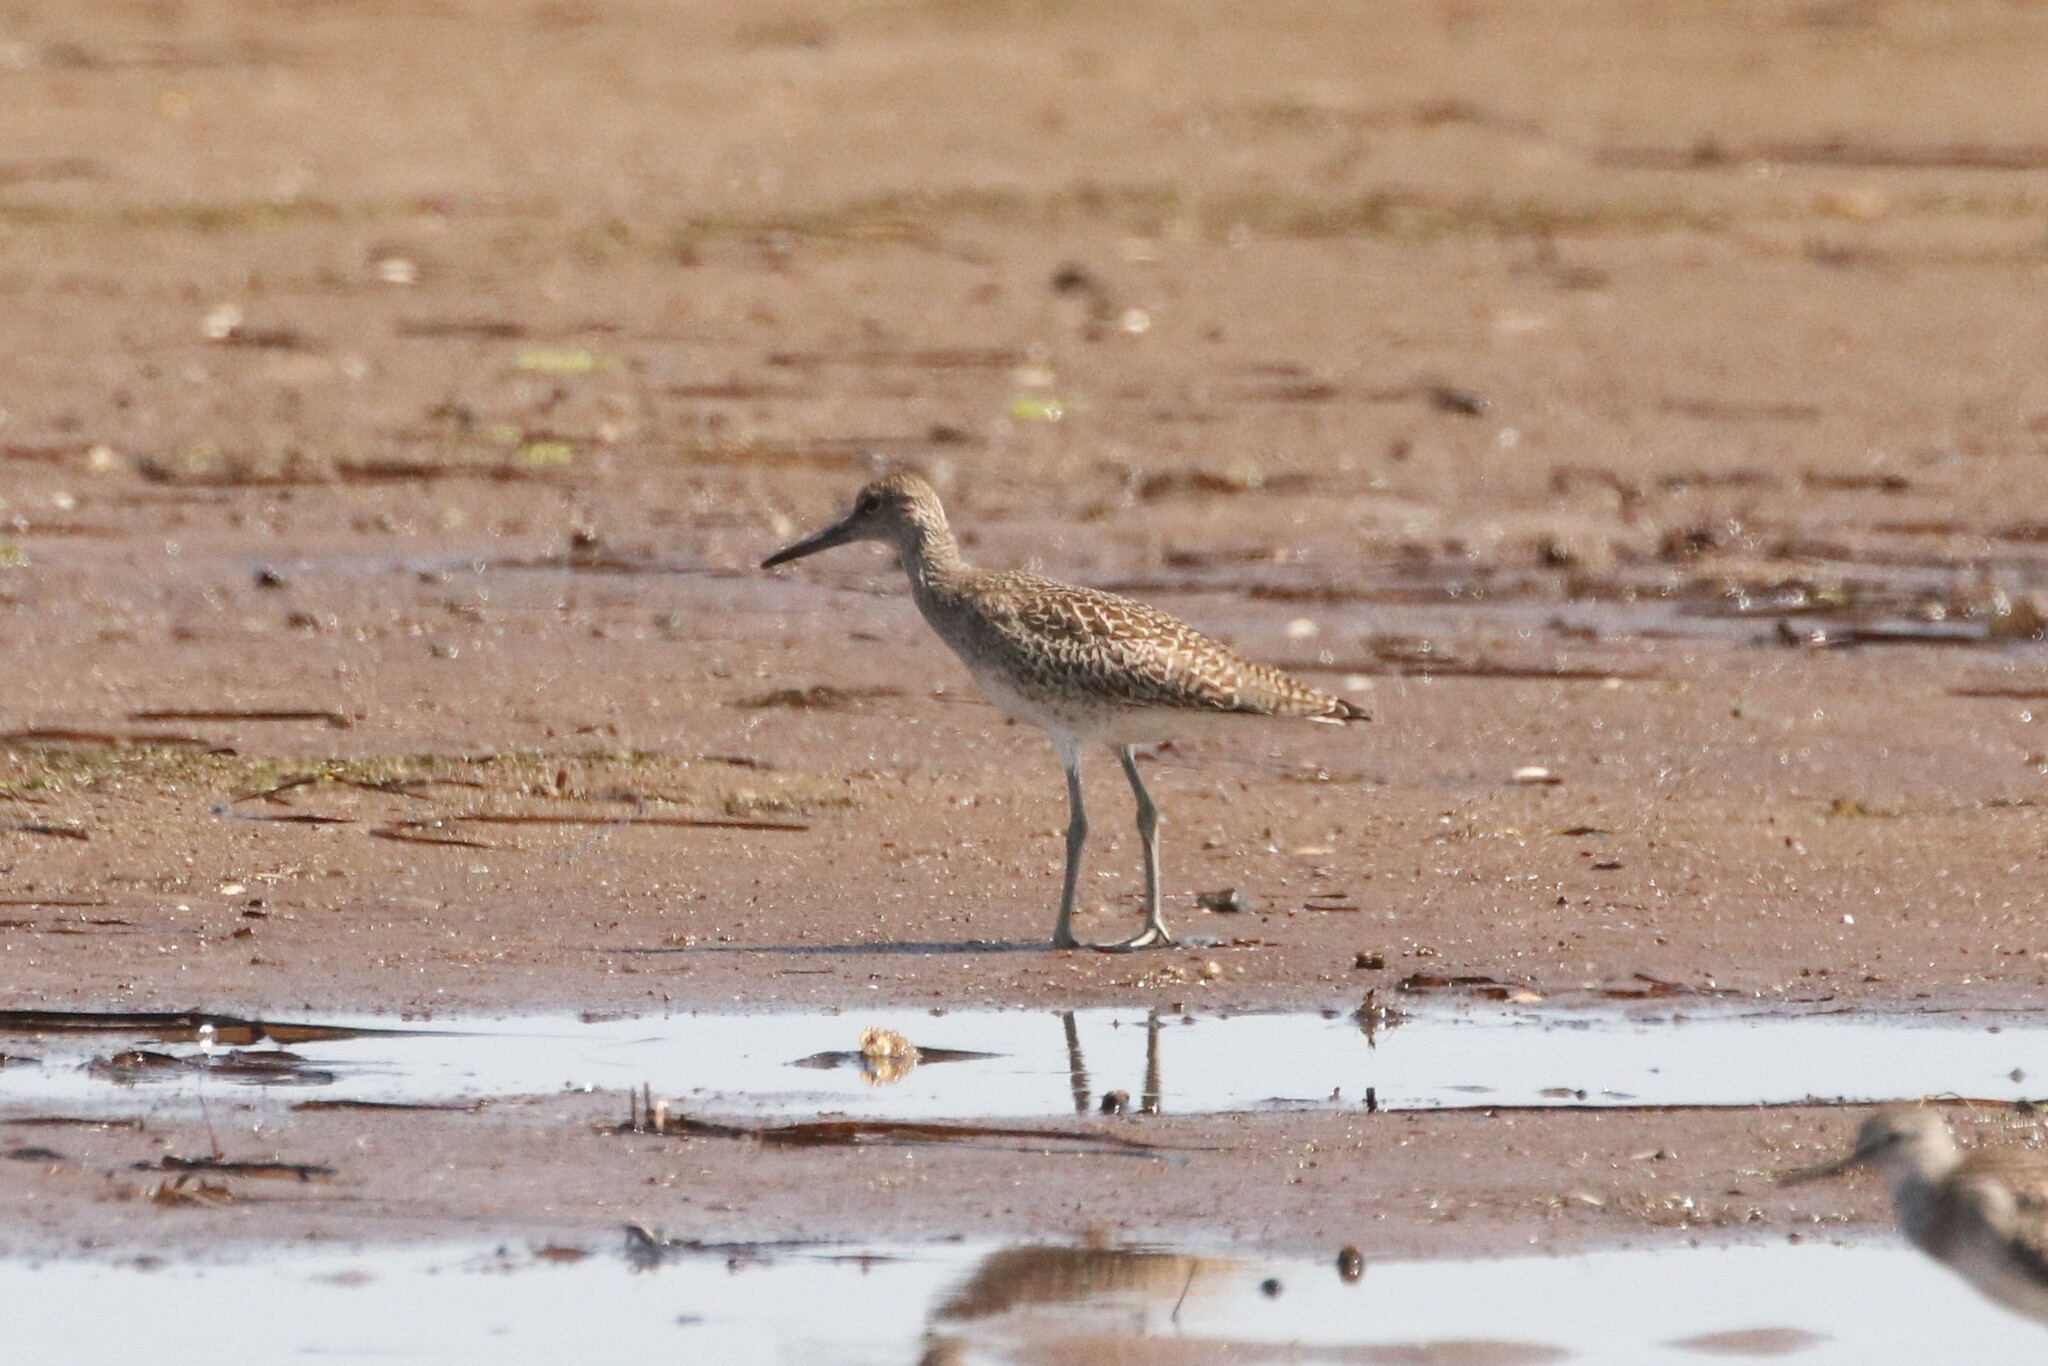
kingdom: Animalia
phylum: Chordata
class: Aves
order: Charadriiformes
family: Scolopacidae
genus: Tringa
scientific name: Tringa semipalmata
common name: Willet
